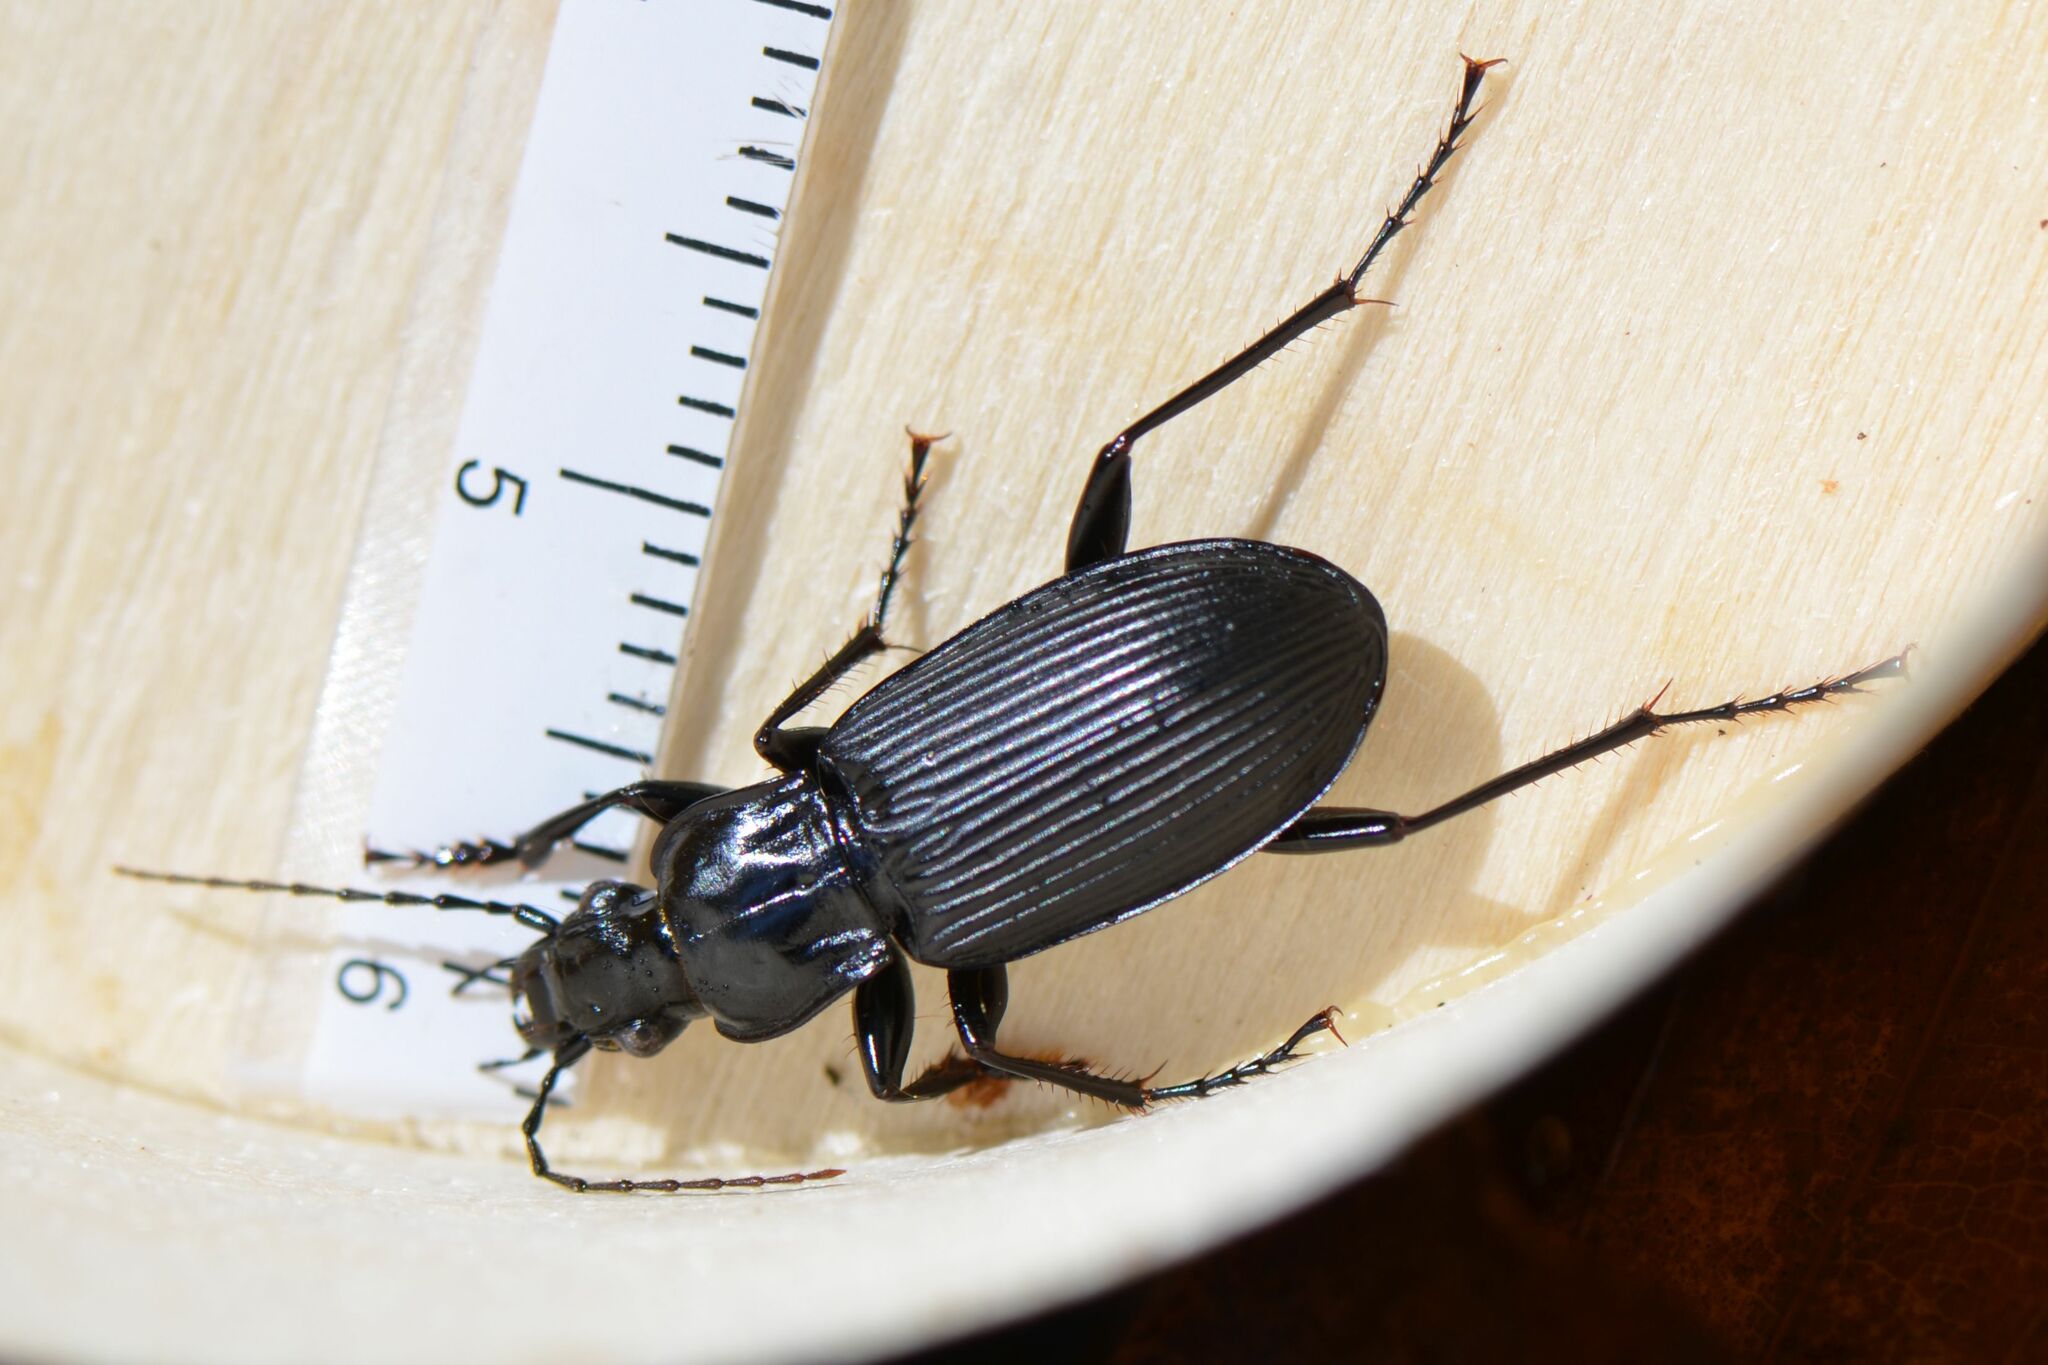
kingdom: Animalia
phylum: Arthropoda
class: Insecta
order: Coleoptera
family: Carabidae
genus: Pterostichus
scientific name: Pterostichus niger
